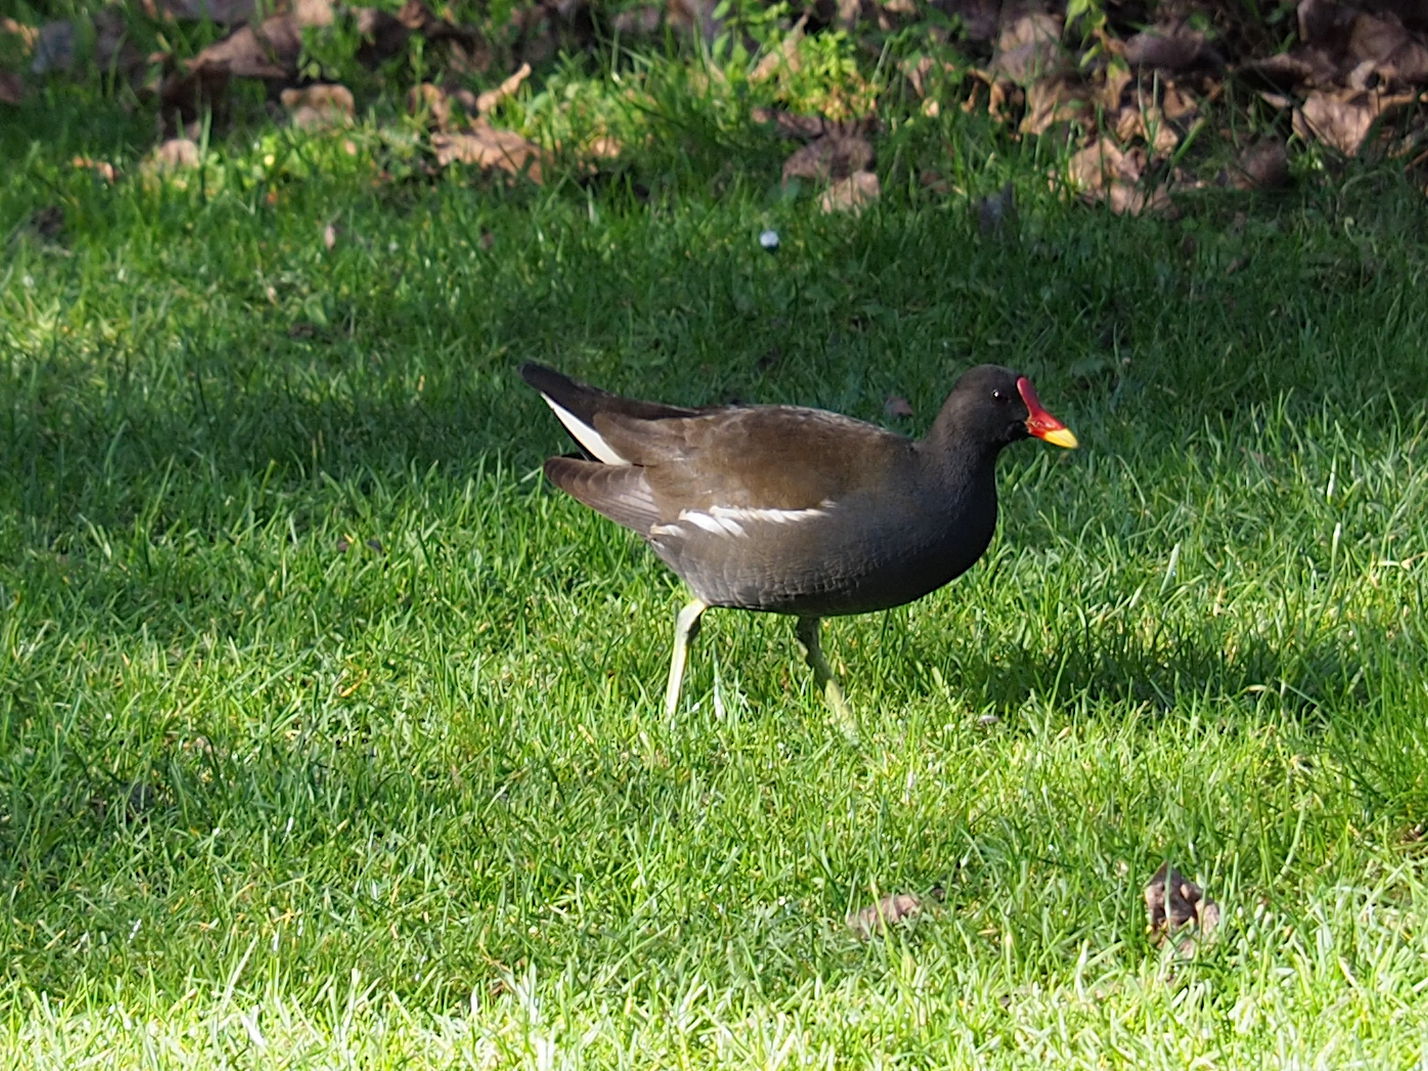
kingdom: Animalia
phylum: Chordata
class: Aves
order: Gruiformes
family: Rallidae
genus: Gallinula
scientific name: Gallinula chloropus
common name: Common moorhen
